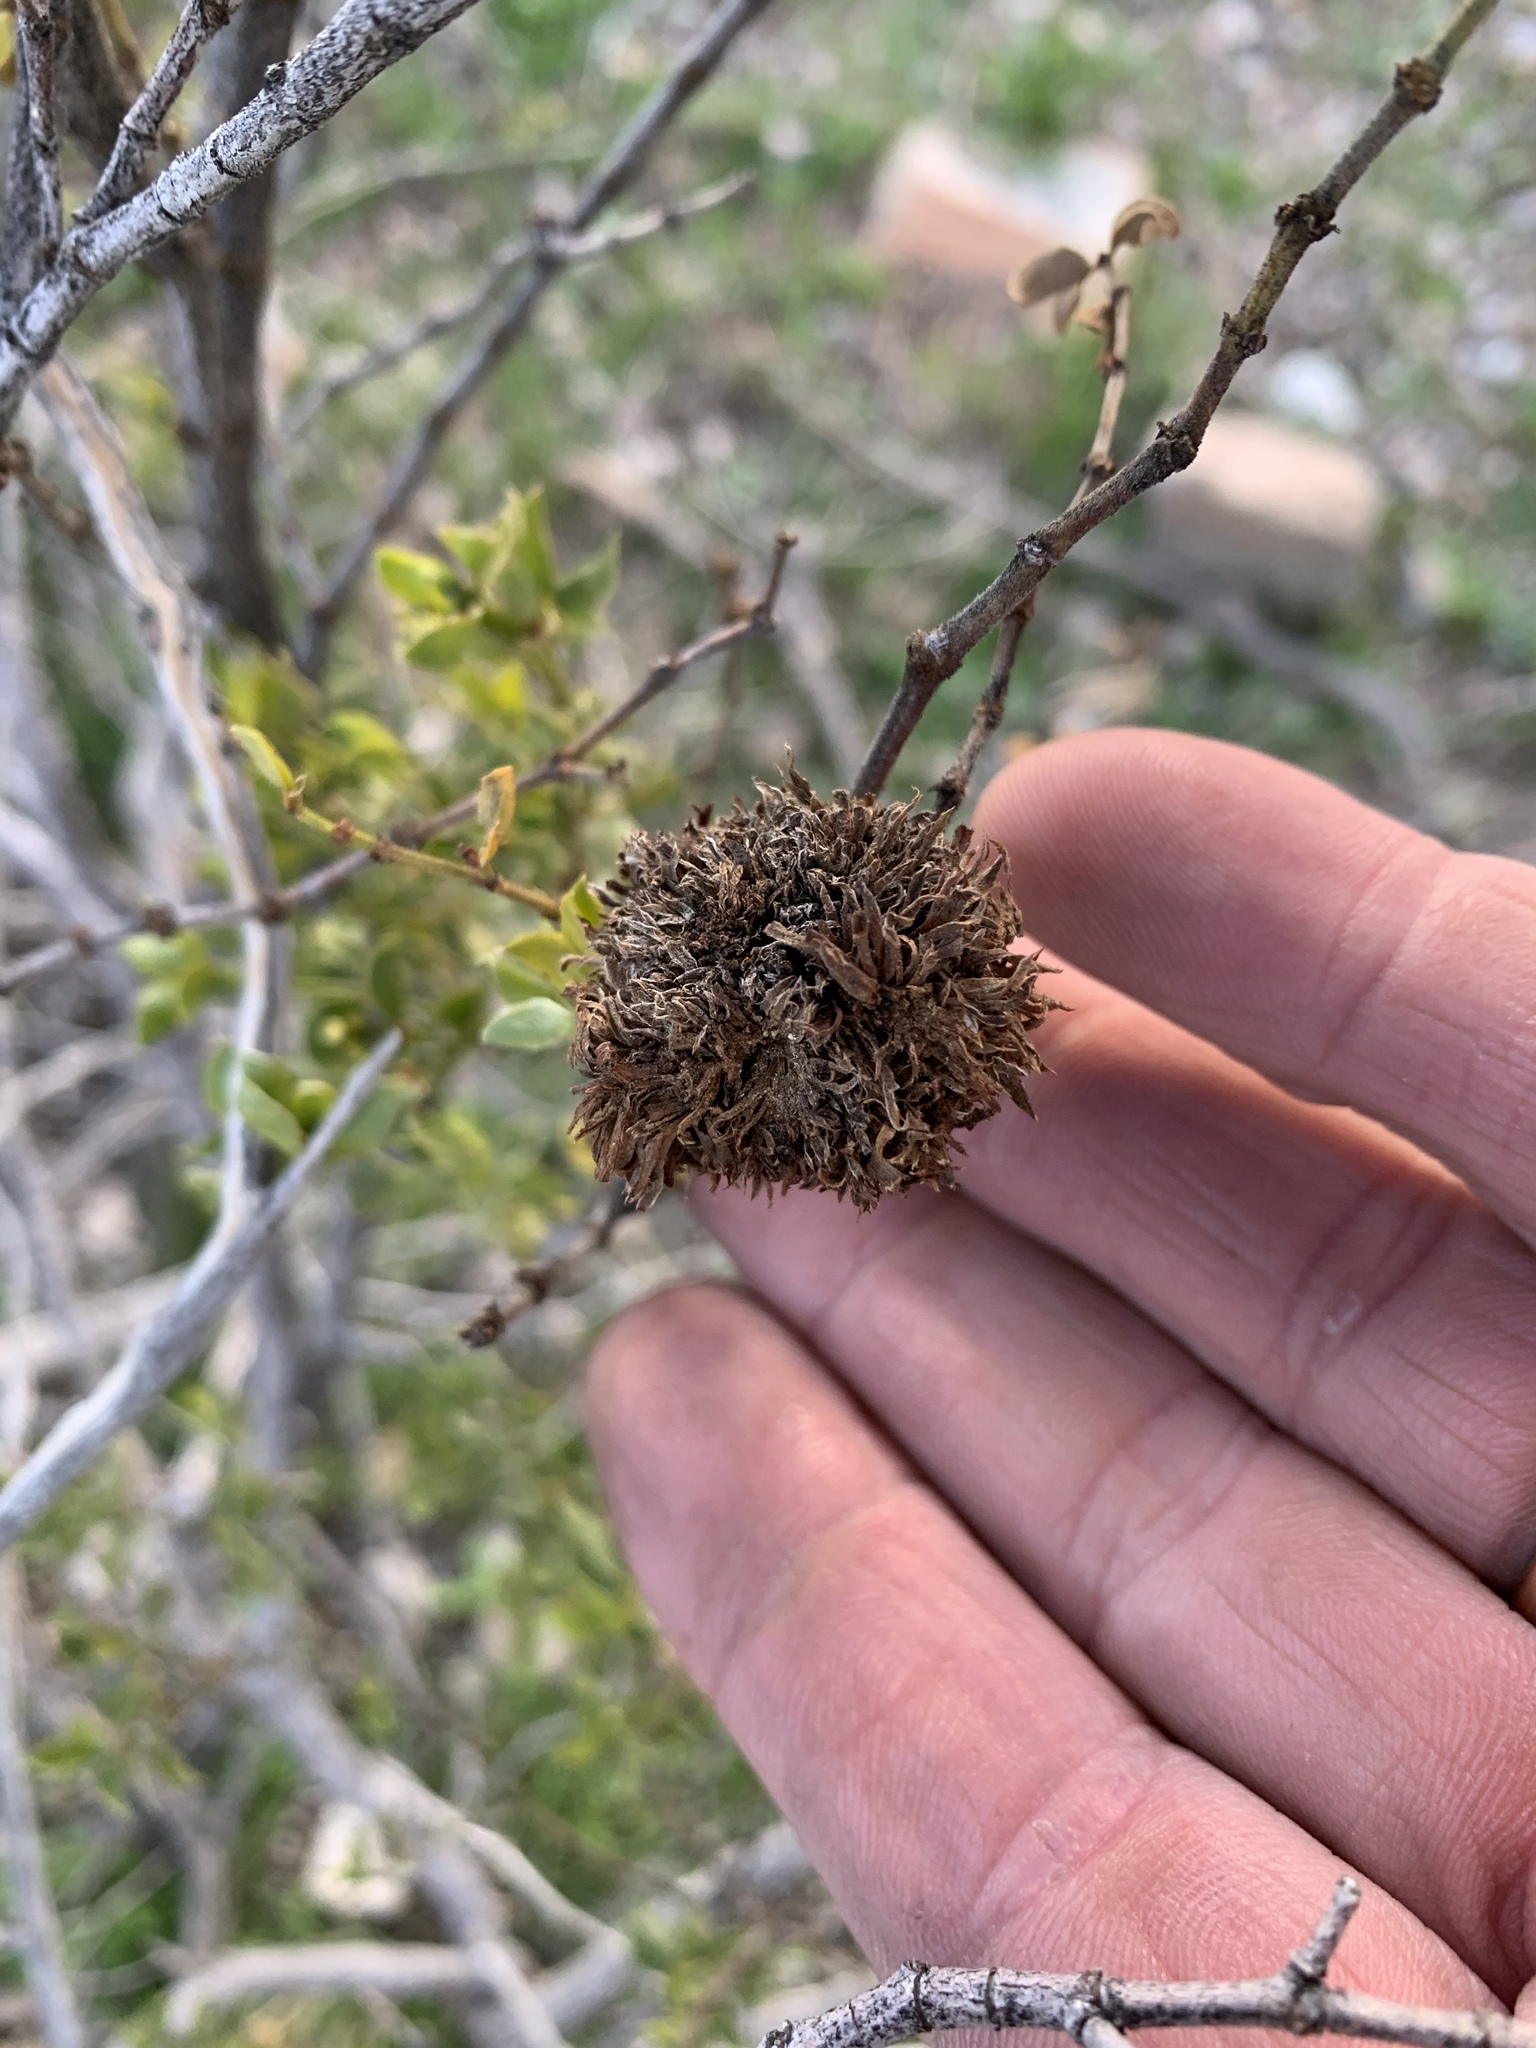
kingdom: Animalia
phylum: Arthropoda
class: Insecta
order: Diptera
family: Cecidomyiidae
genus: Asphondylia
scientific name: Asphondylia auripila
